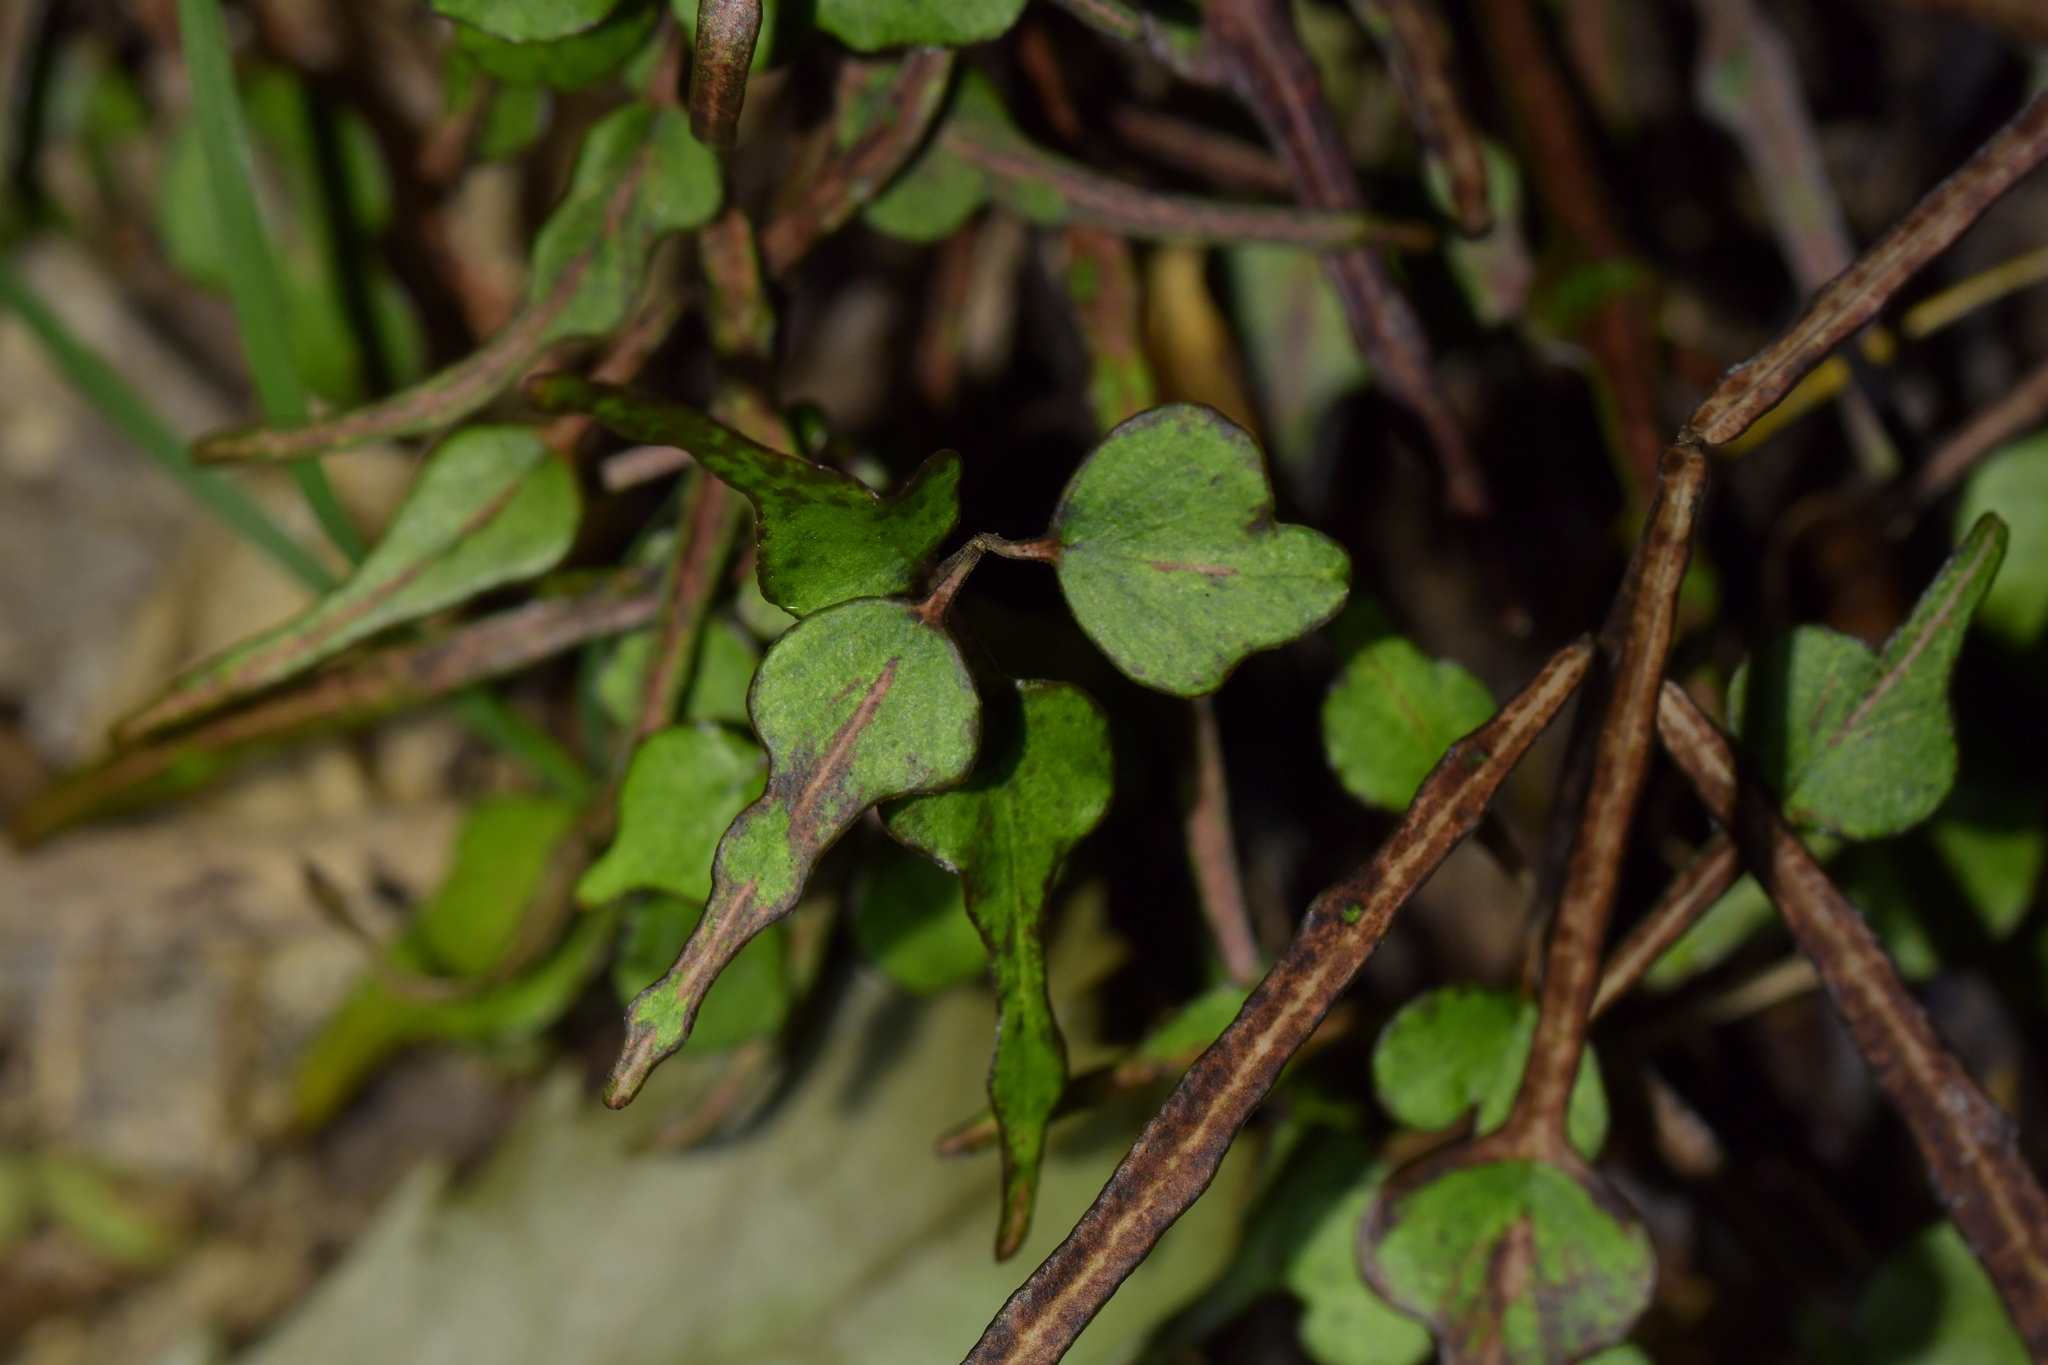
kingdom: Plantae
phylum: Tracheophyta
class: Magnoliopsida
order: Gentianales
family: Apocynaceae
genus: Parsonsia
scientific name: Parsonsia heterophylla
